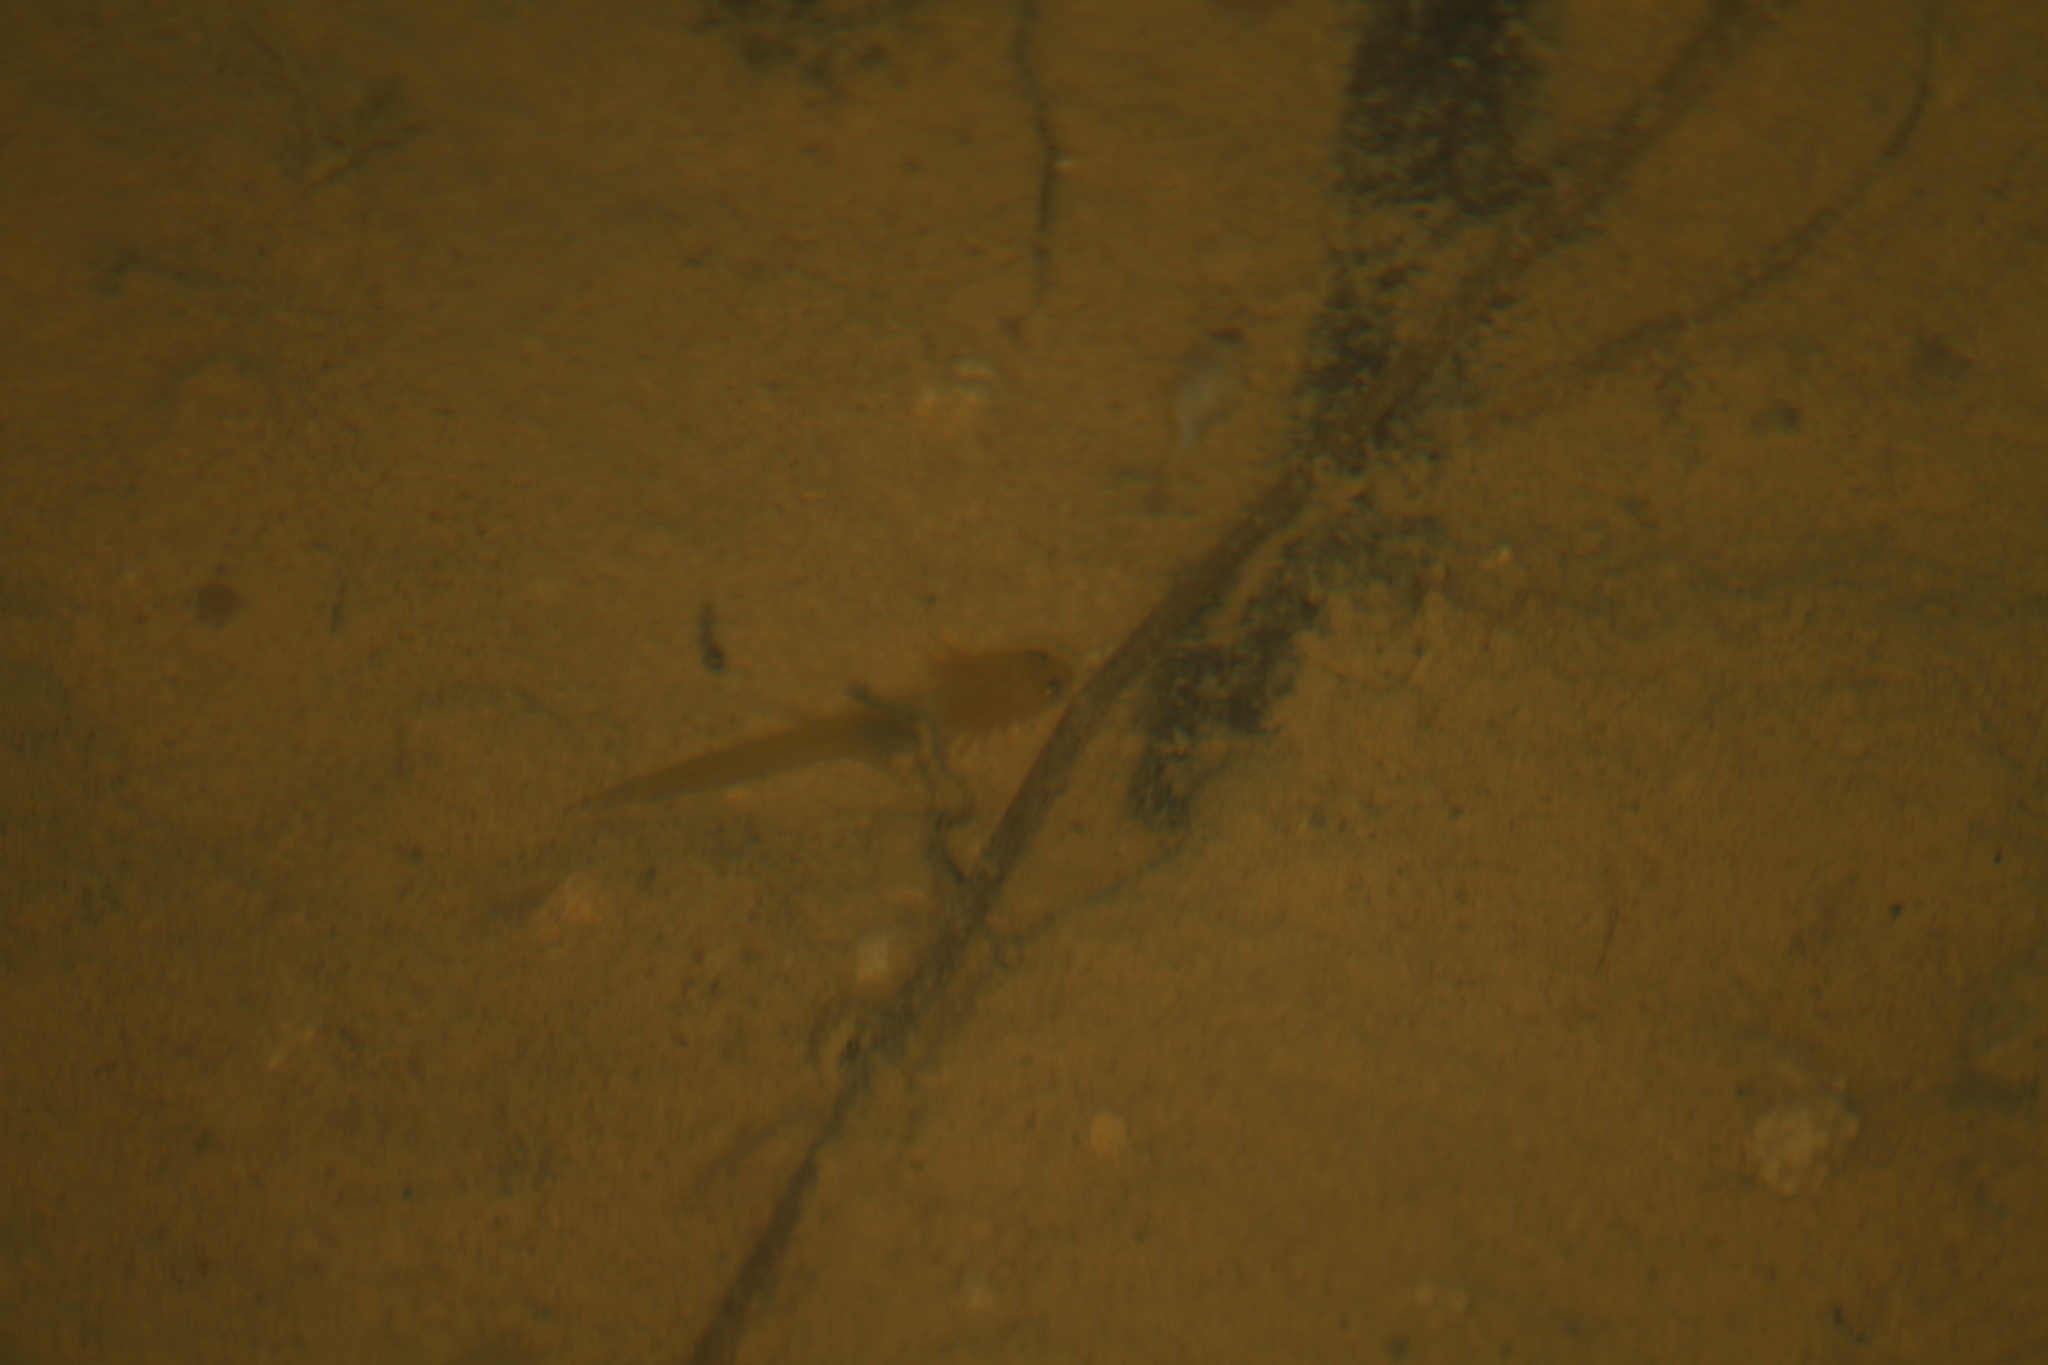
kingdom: Animalia
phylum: Chordata
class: Amphibia
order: Caudata
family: Salamandridae
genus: Lissotriton
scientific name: Lissotriton helveticus
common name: Palmate newt
